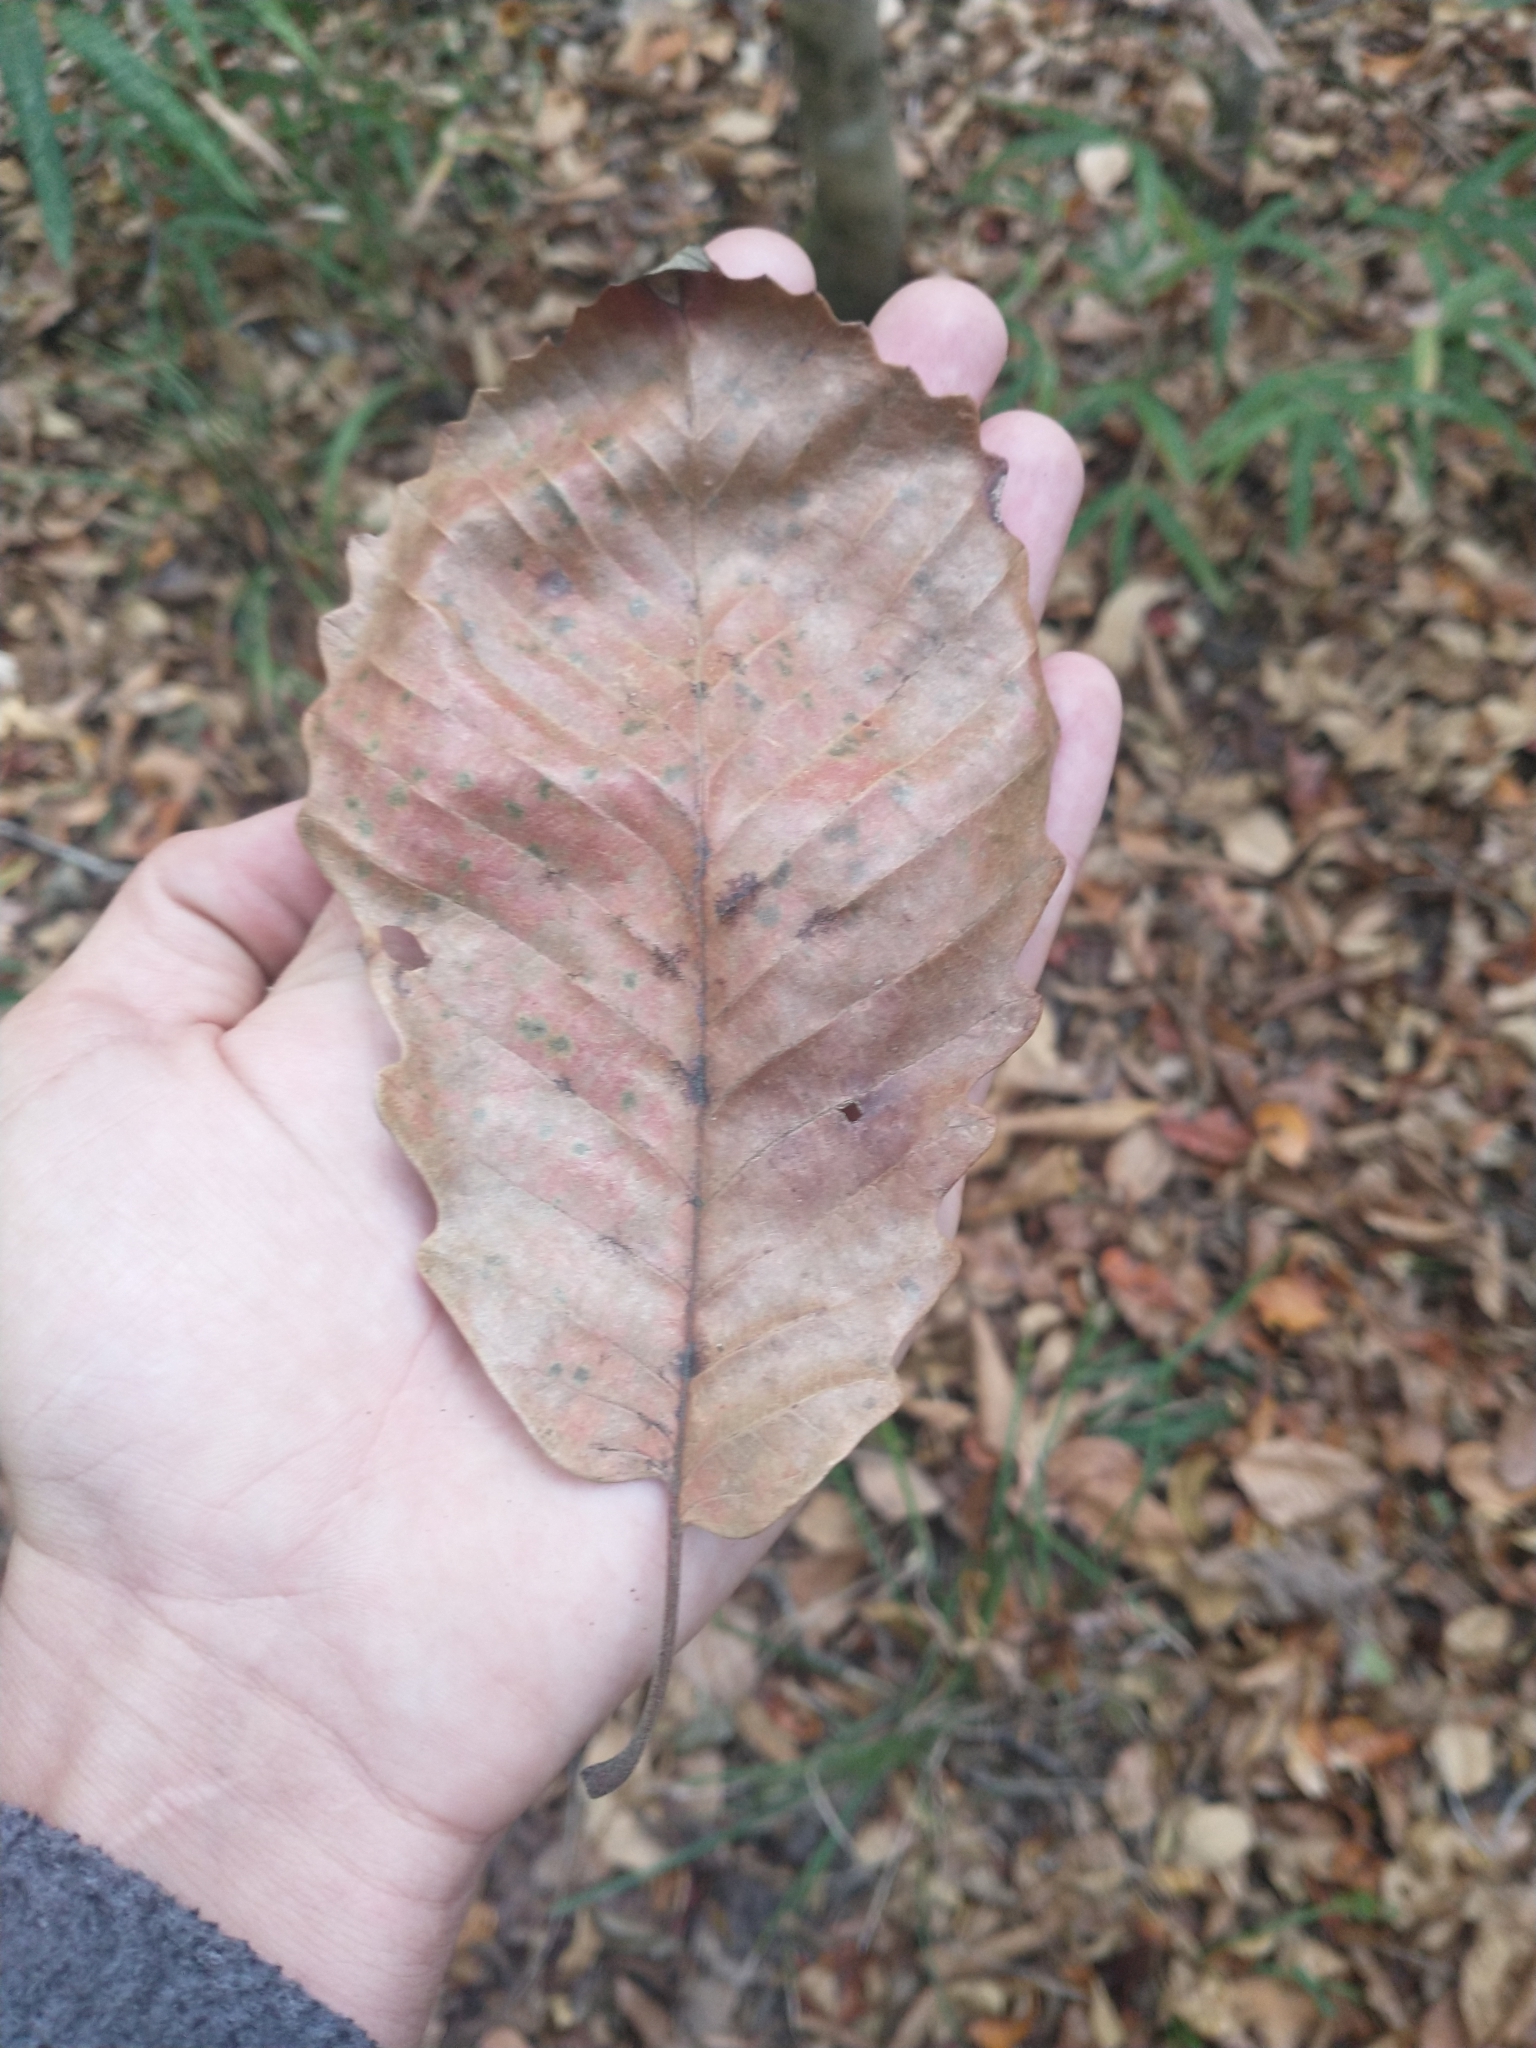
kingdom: Plantae
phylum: Tracheophyta
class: Magnoliopsida
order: Fagales
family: Fagaceae
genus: Quercus
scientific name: Quercus michauxii
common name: Swamp chestnut oak
